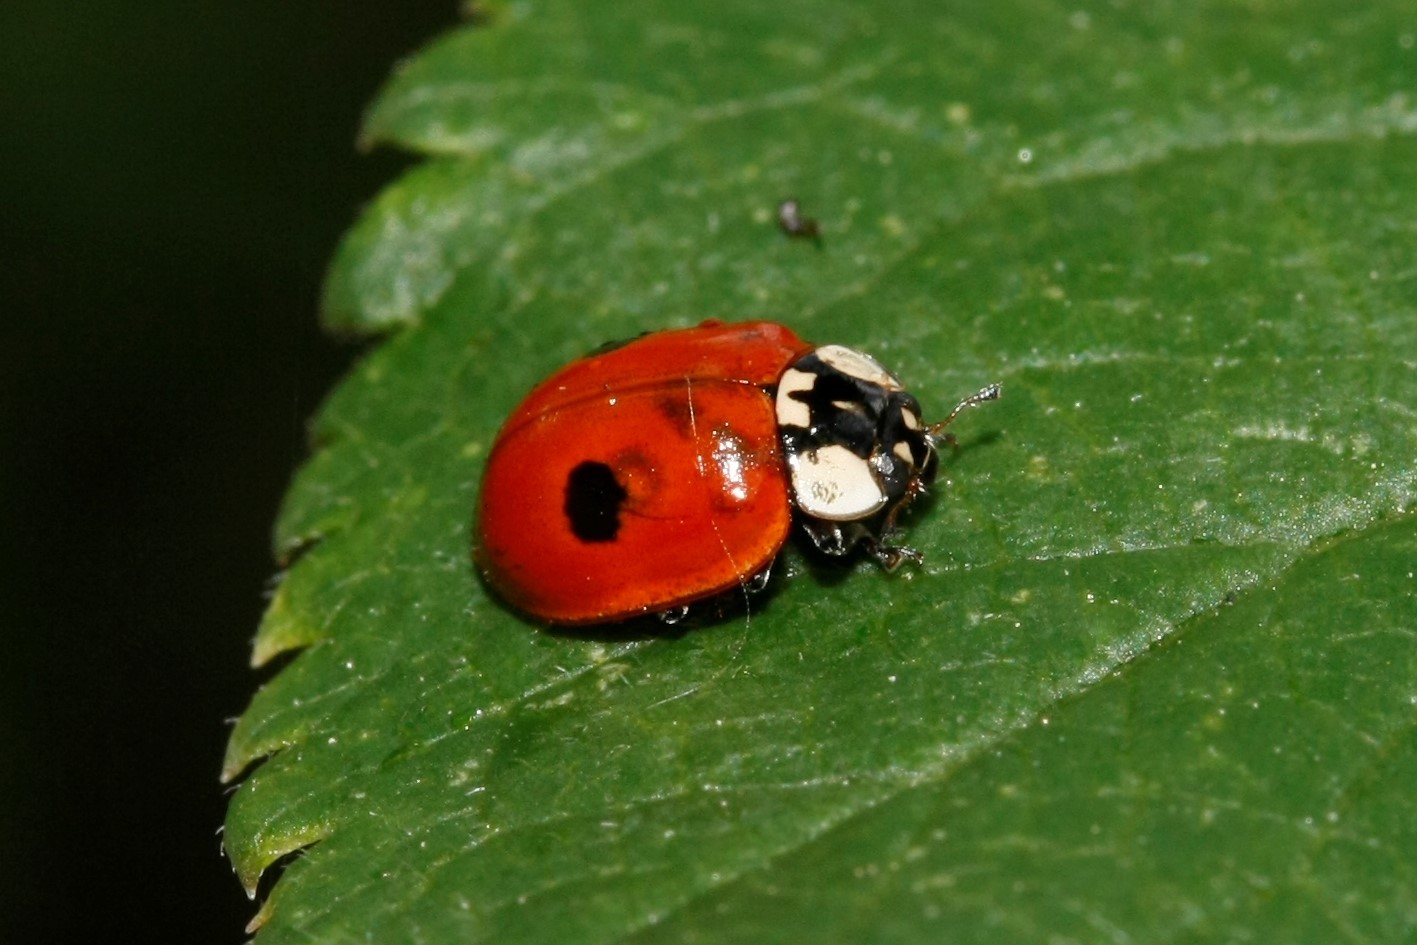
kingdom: Animalia
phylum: Arthropoda
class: Insecta
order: Coleoptera
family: Coccinellidae
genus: Adalia
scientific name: Adalia bipunctata
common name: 2-spot ladybird
